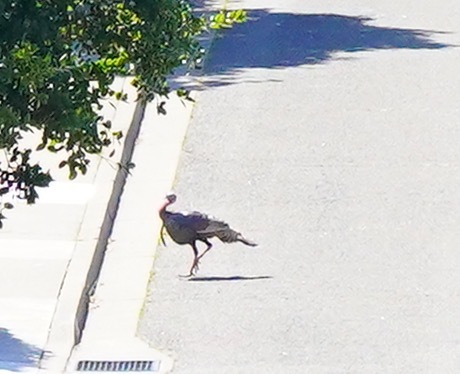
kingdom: Animalia
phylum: Chordata
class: Aves
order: Galliformes
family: Phasianidae
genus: Meleagris
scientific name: Meleagris gallopavo
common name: Wild turkey
